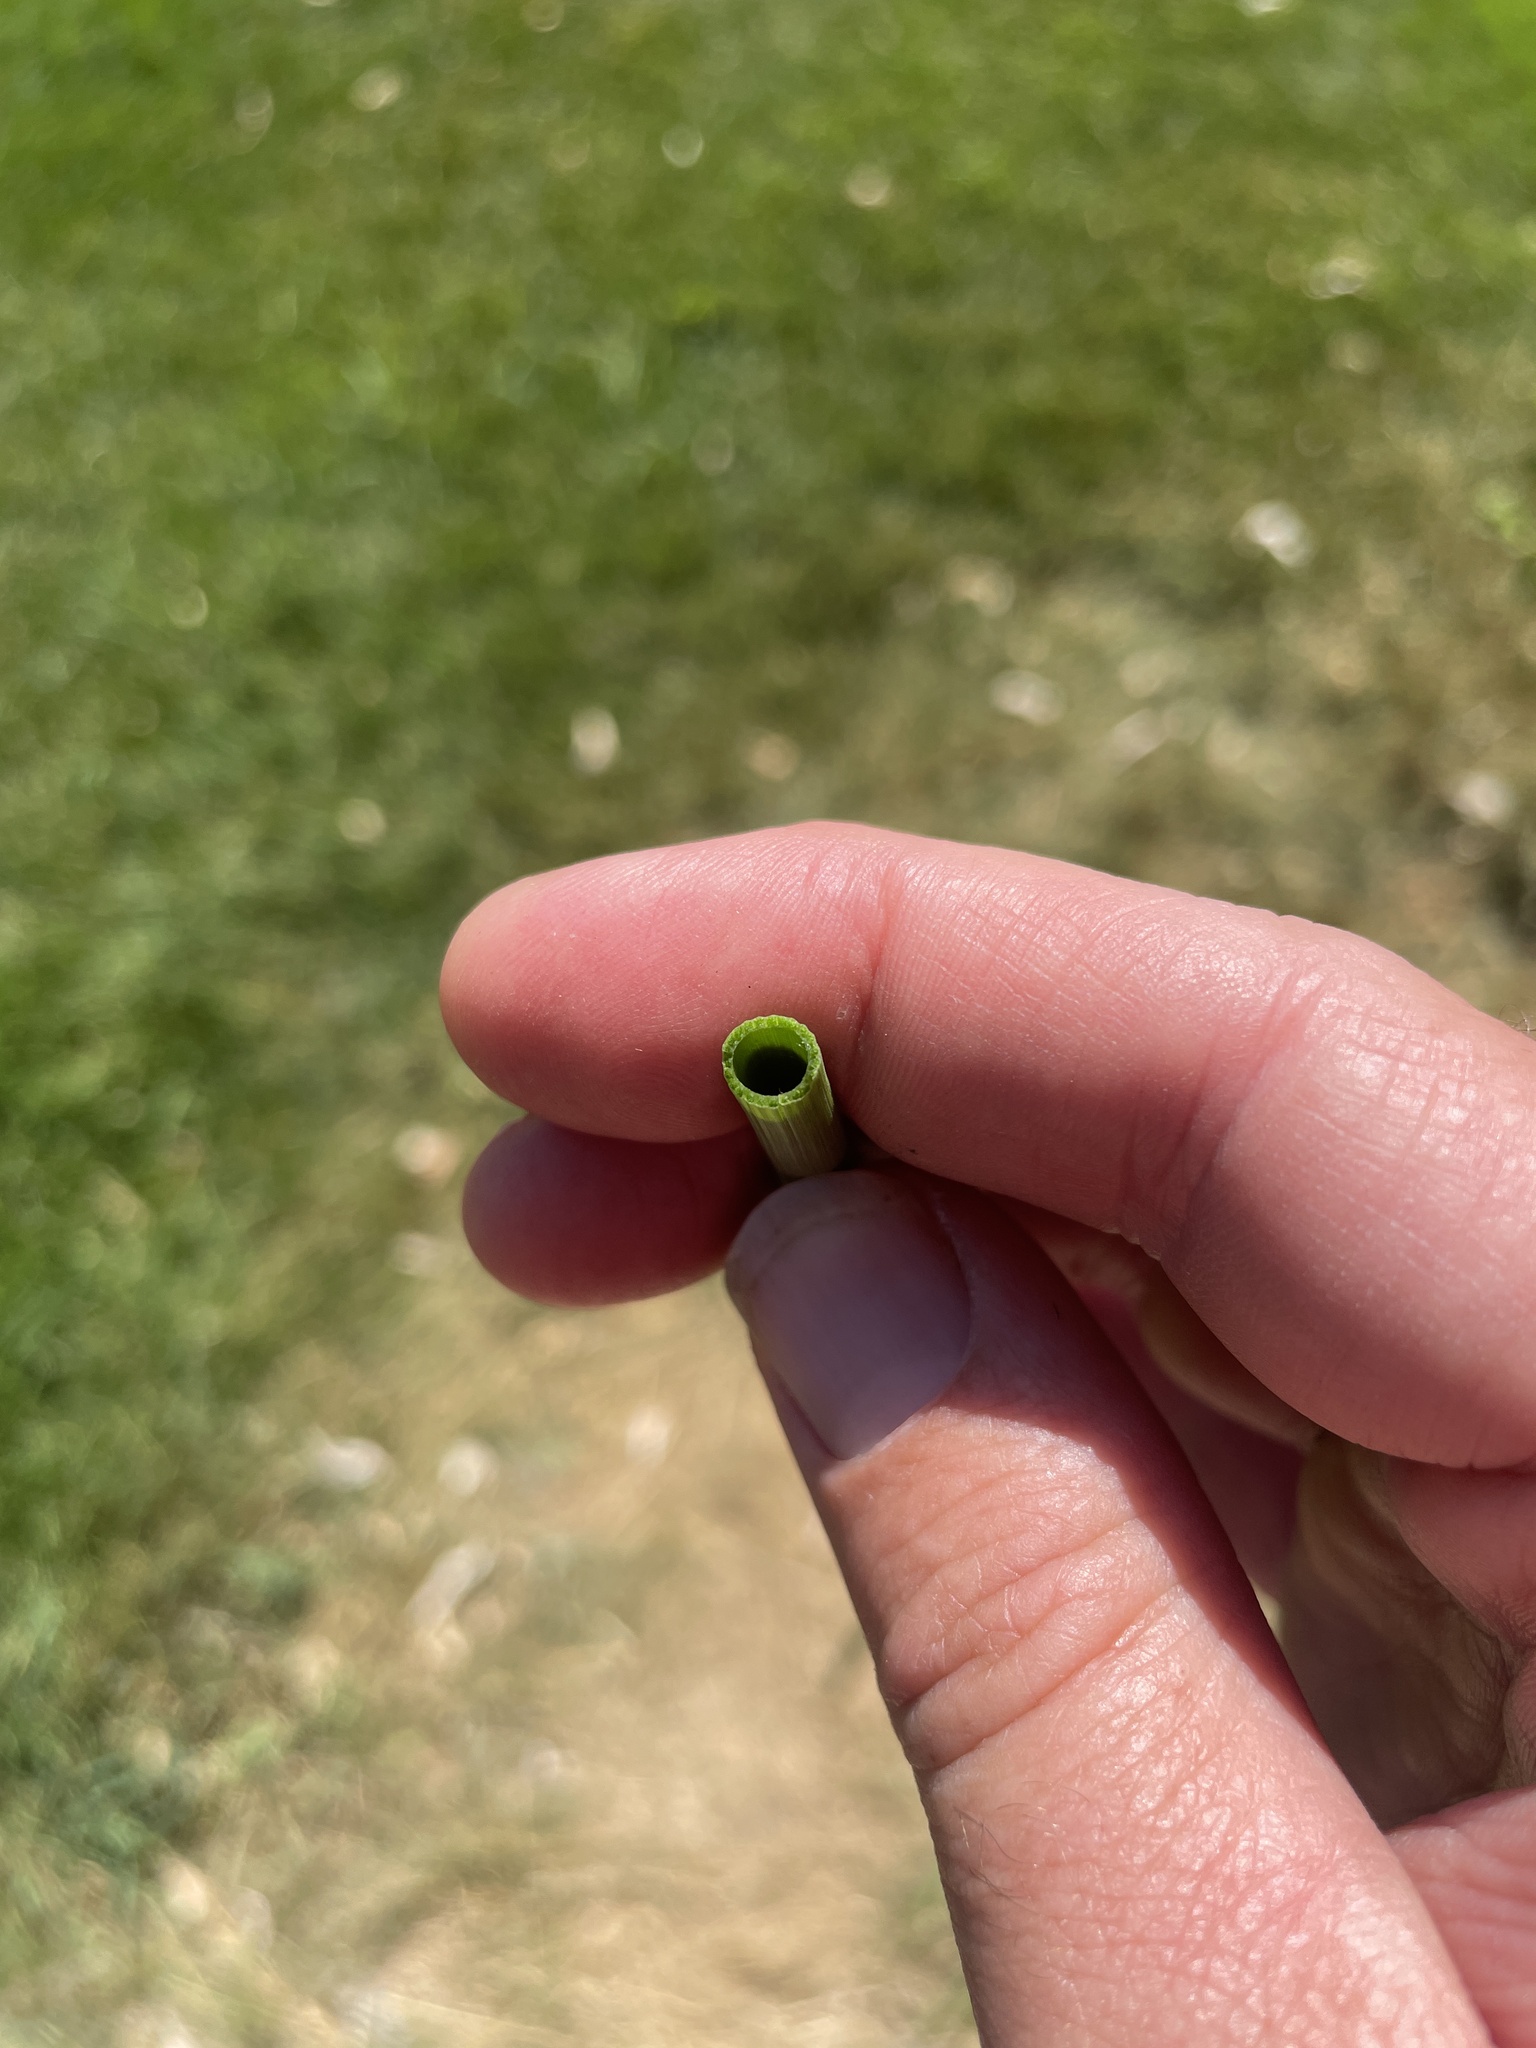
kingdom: Plantae
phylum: Tracheophyta
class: Polypodiopsida
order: Equisetales
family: Equisetaceae
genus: Equisetum
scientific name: Equisetum ferrissii
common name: Ferriss' horsetail
